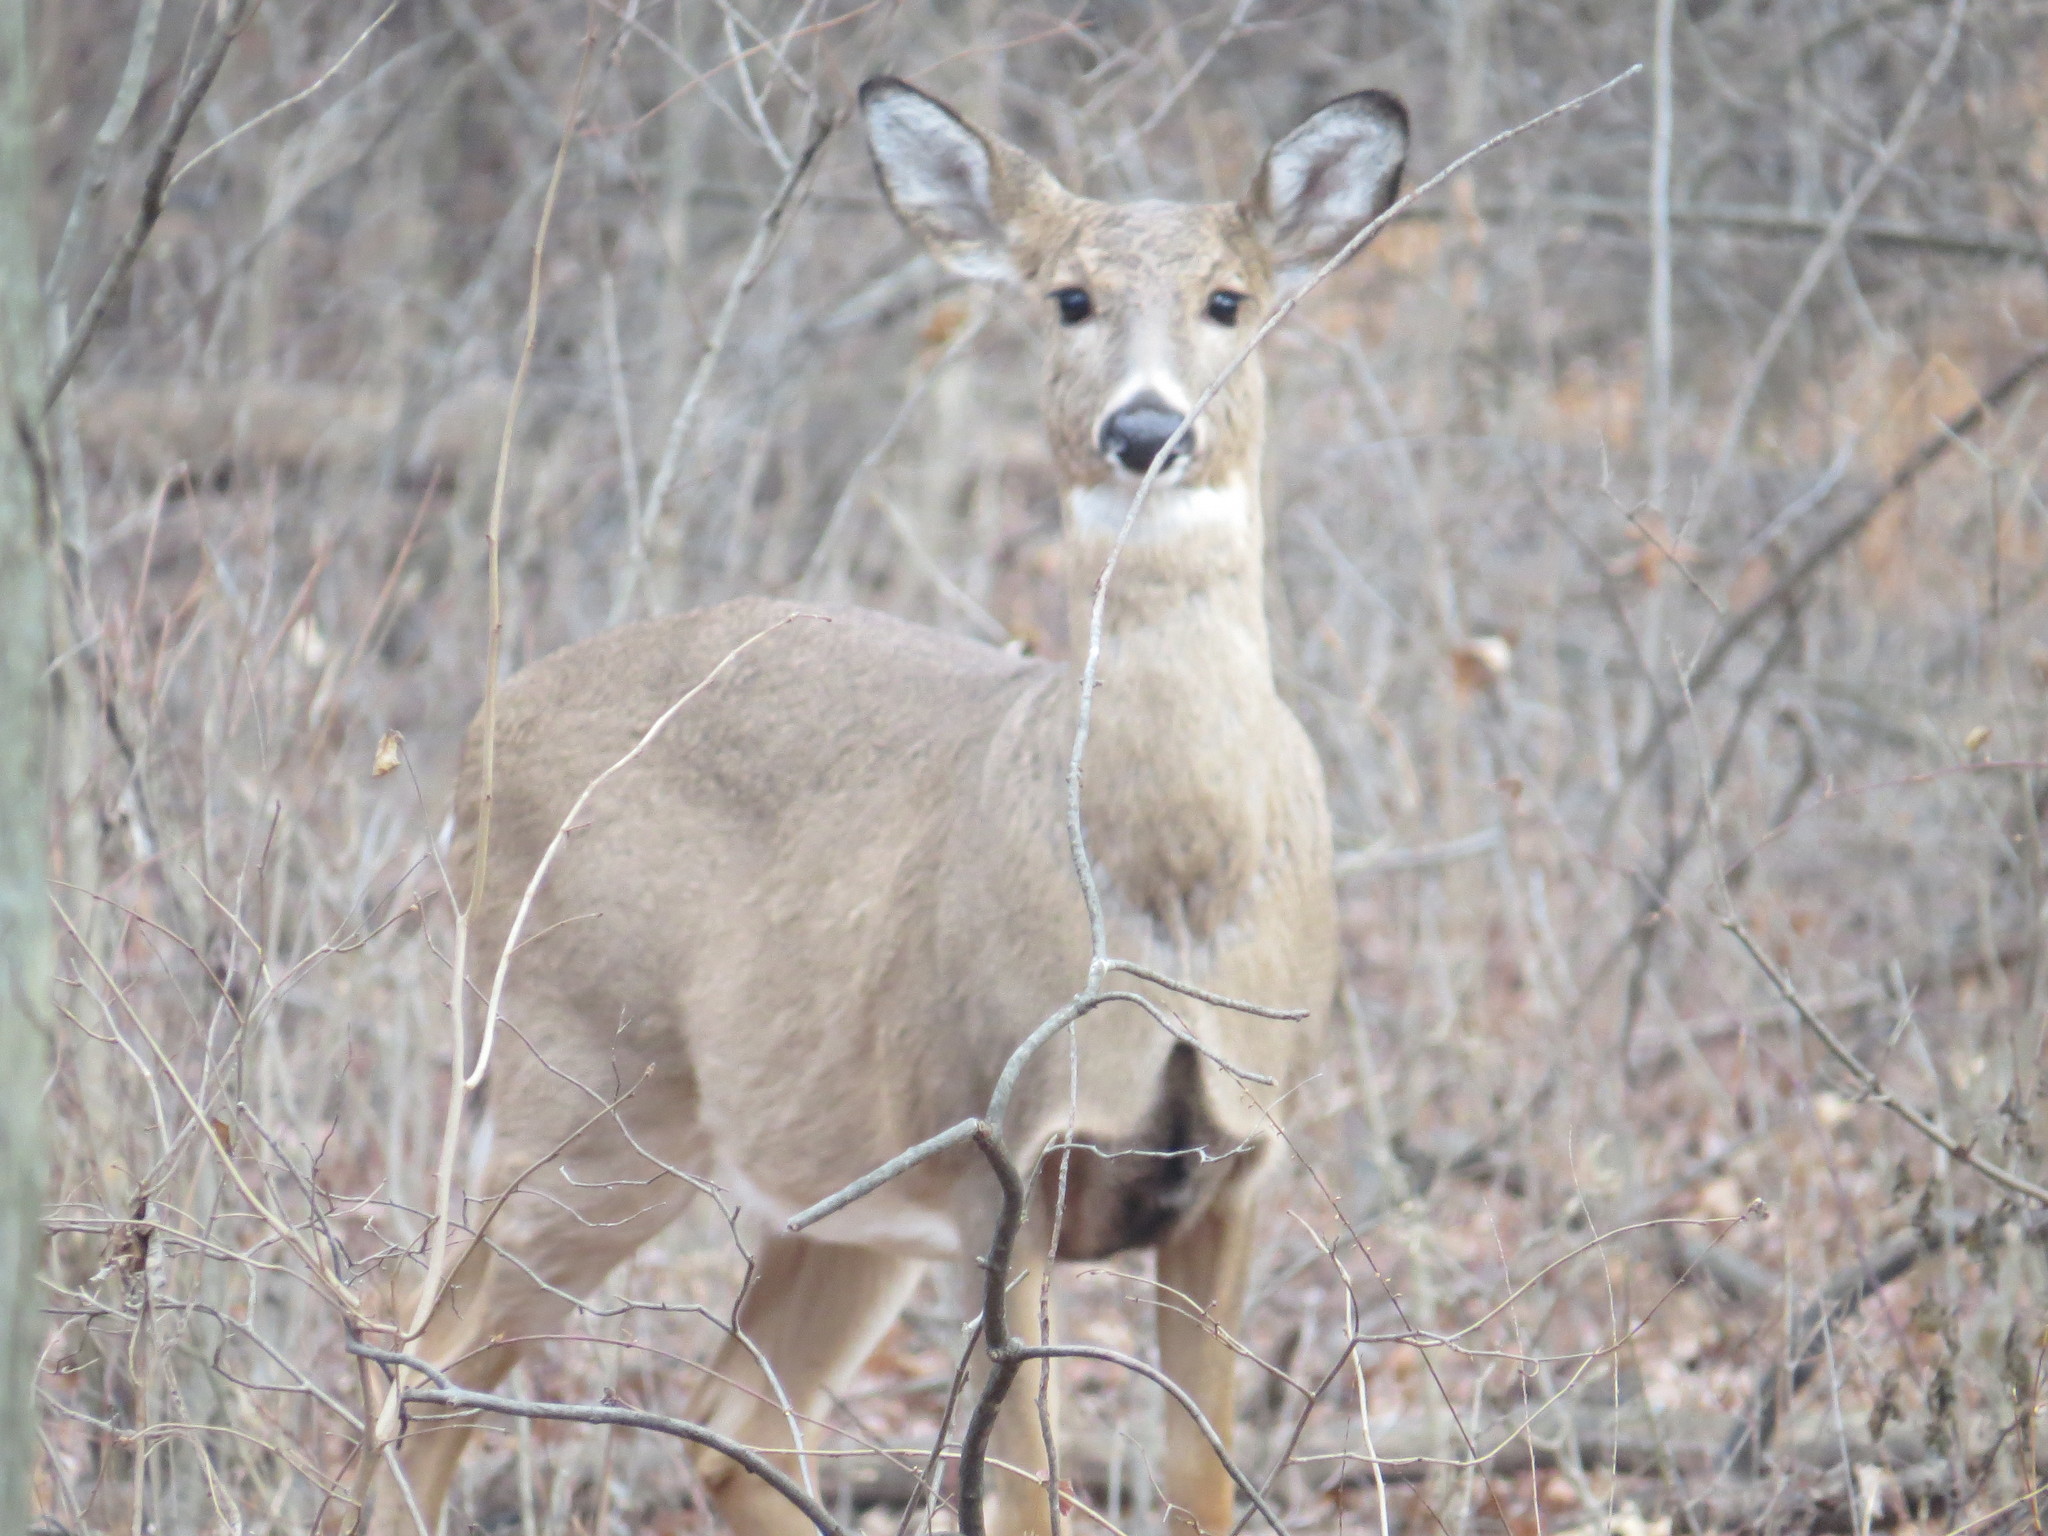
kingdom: Animalia
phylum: Chordata
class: Mammalia
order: Artiodactyla
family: Cervidae
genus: Odocoileus
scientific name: Odocoileus virginianus
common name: White-tailed deer
